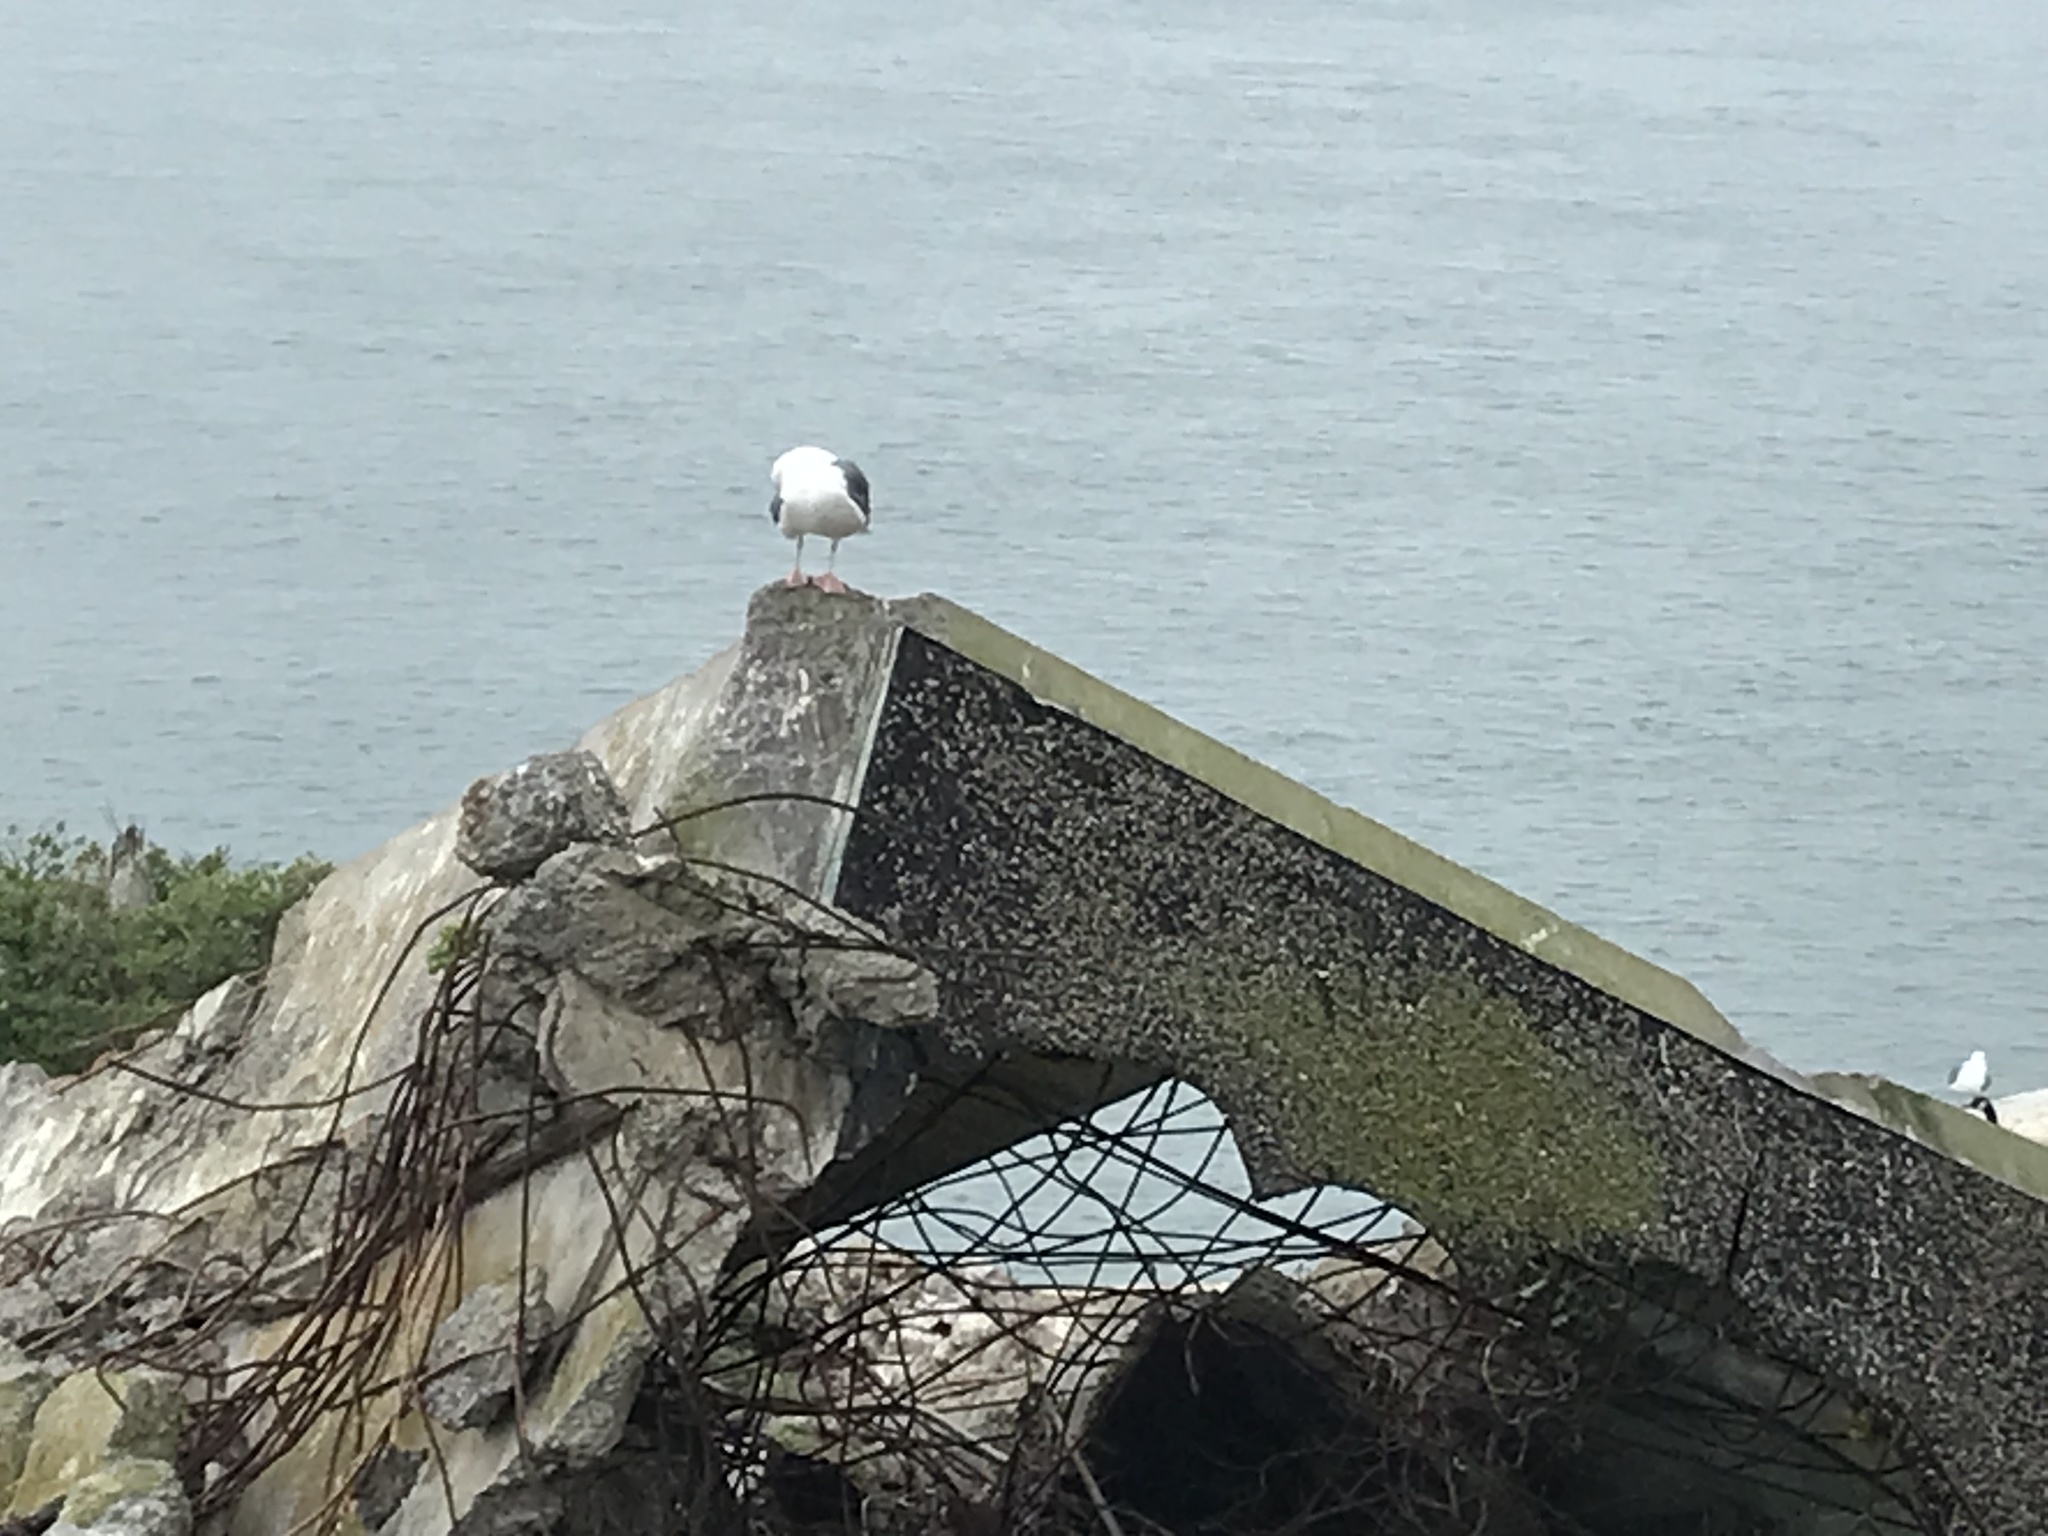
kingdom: Animalia
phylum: Chordata
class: Aves
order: Charadriiformes
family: Laridae
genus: Larus
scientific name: Larus occidentalis
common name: Western gull
